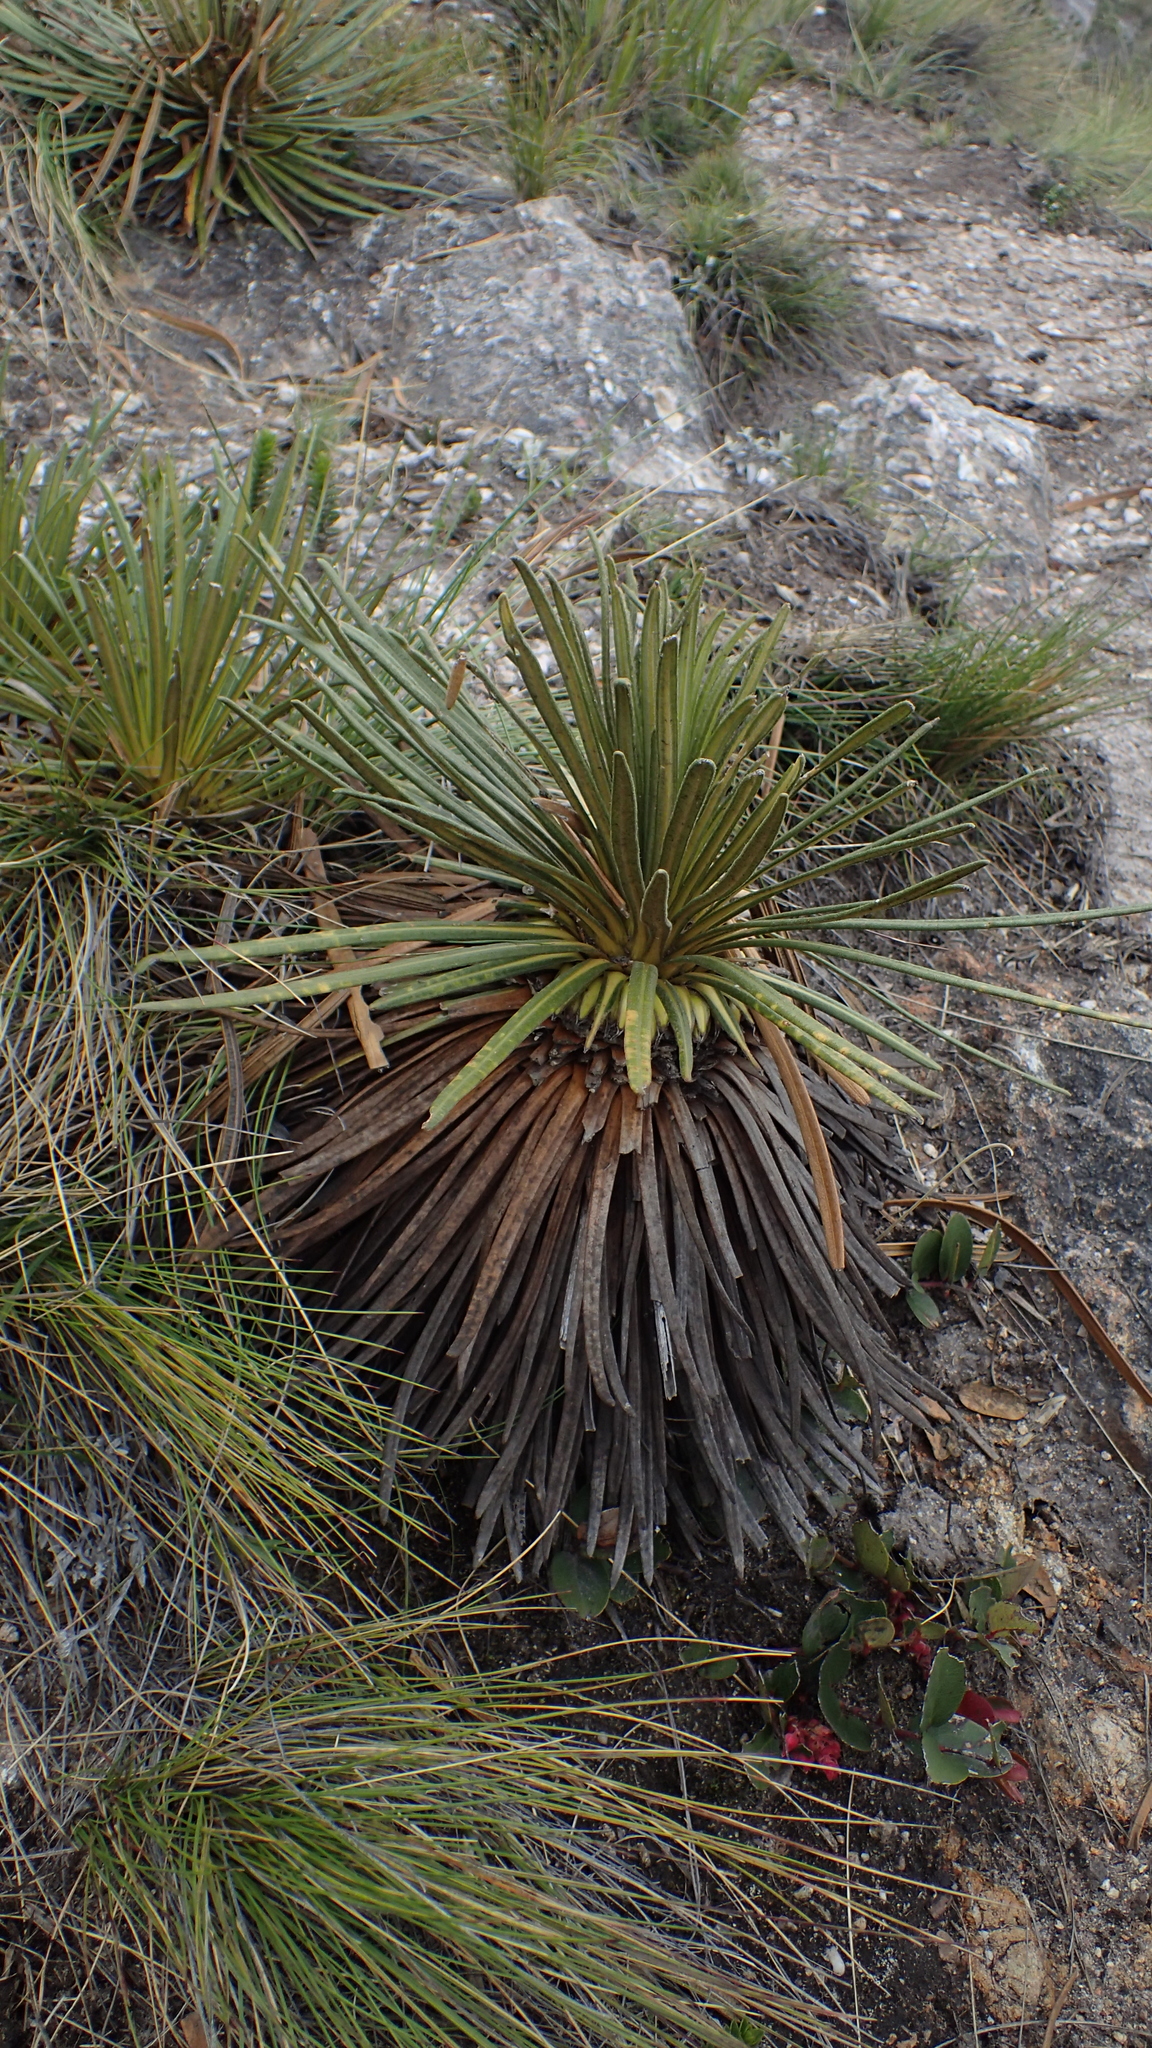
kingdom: Plantae
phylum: Tracheophyta
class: Magnoliopsida
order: Asterales
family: Asteraceae
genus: Espeletia
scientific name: Espeletia glandulosa
